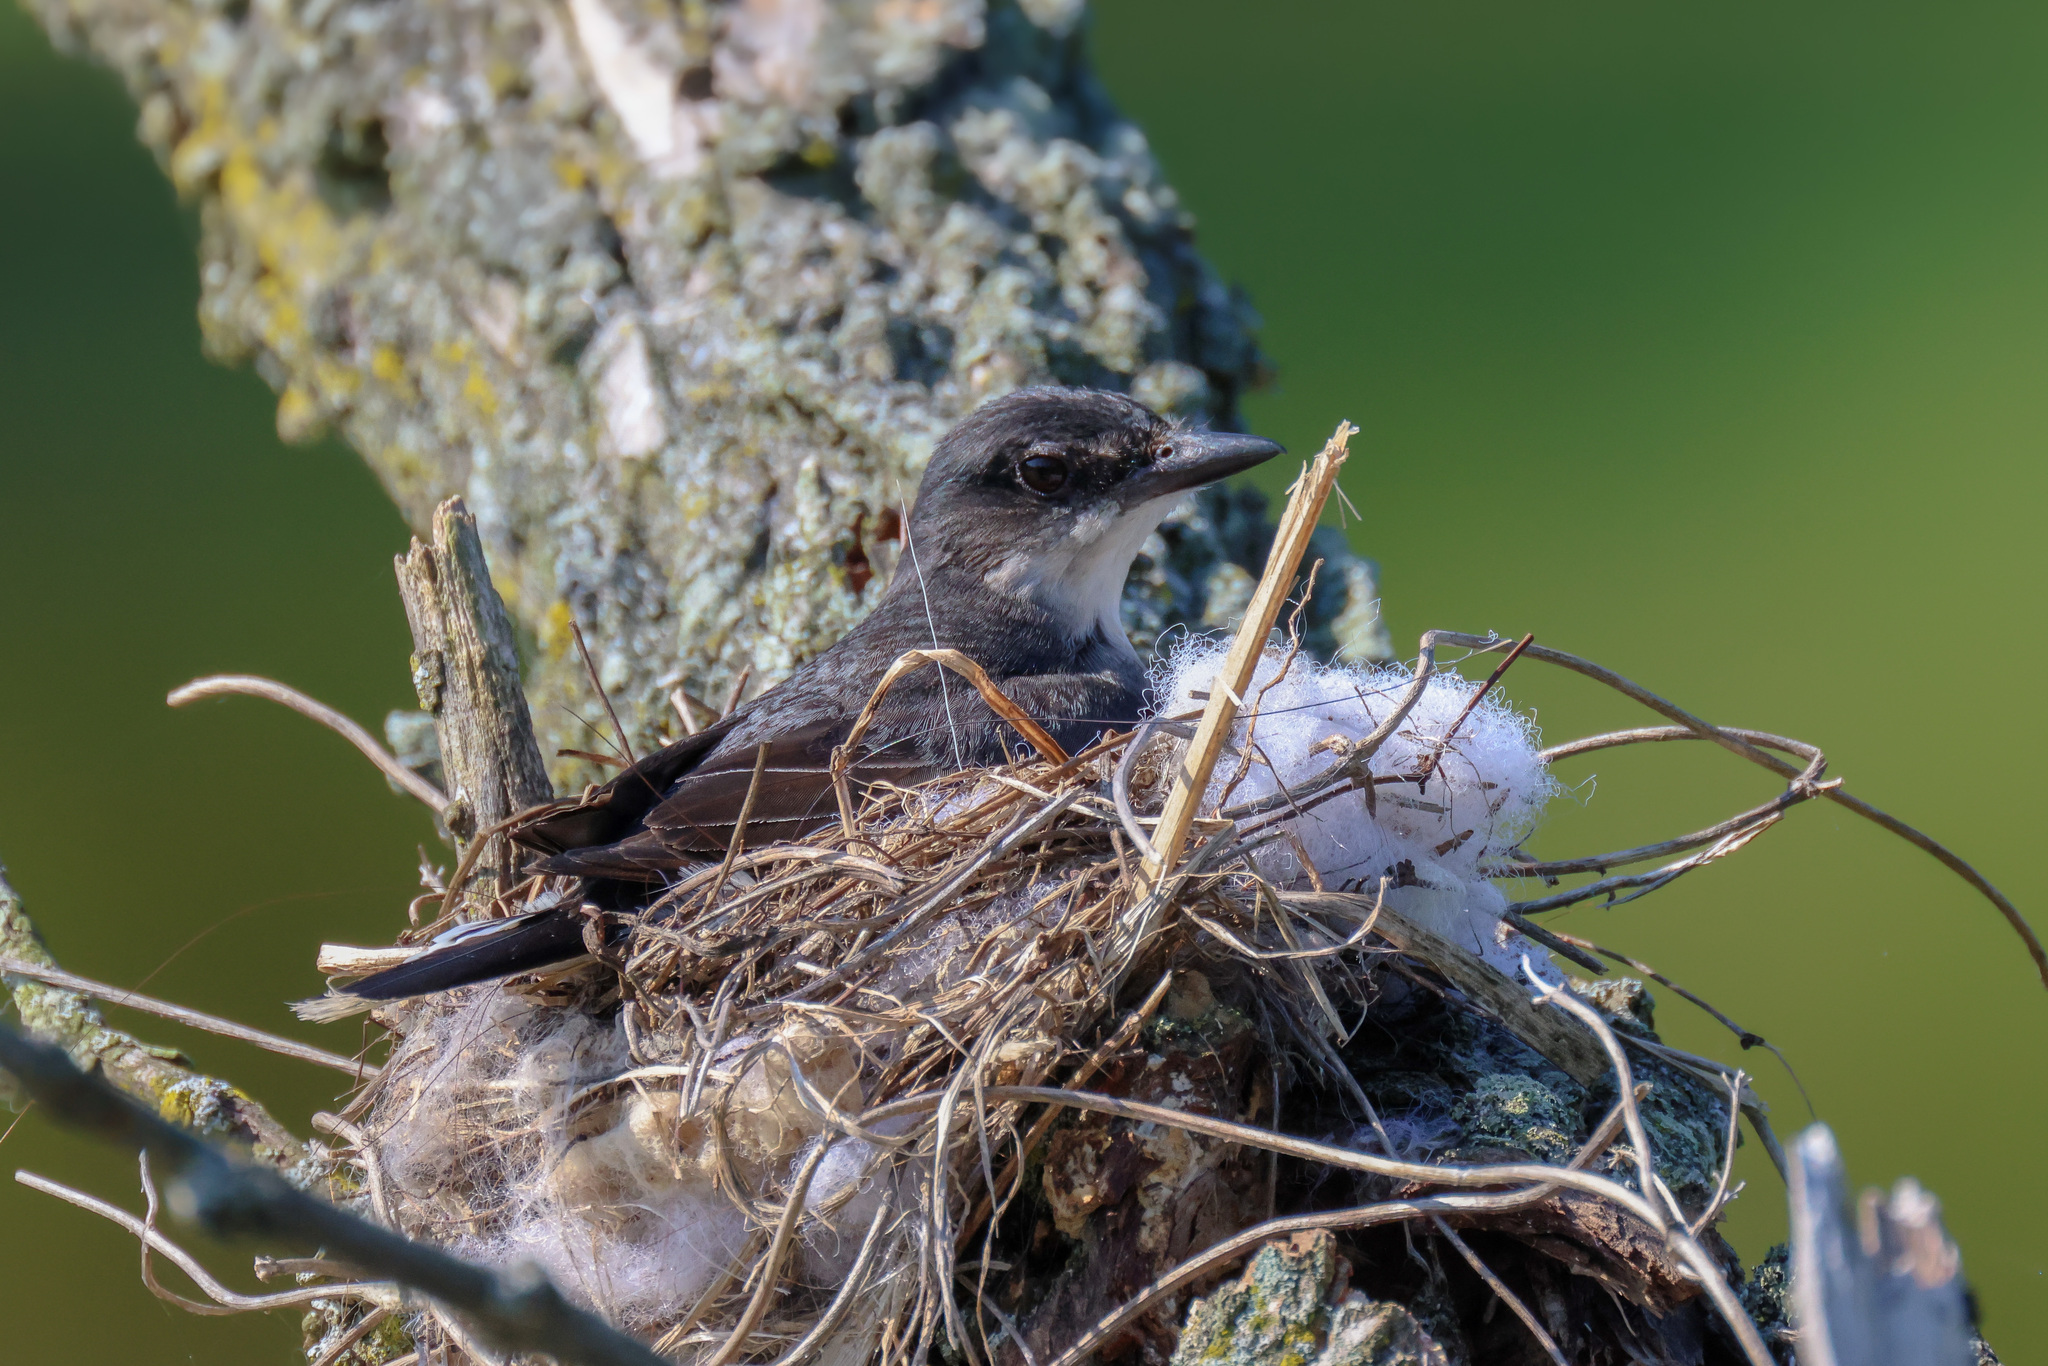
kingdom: Animalia
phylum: Chordata
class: Aves
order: Passeriformes
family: Tyrannidae
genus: Tyrannus
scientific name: Tyrannus tyrannus
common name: Eastern kingbird
